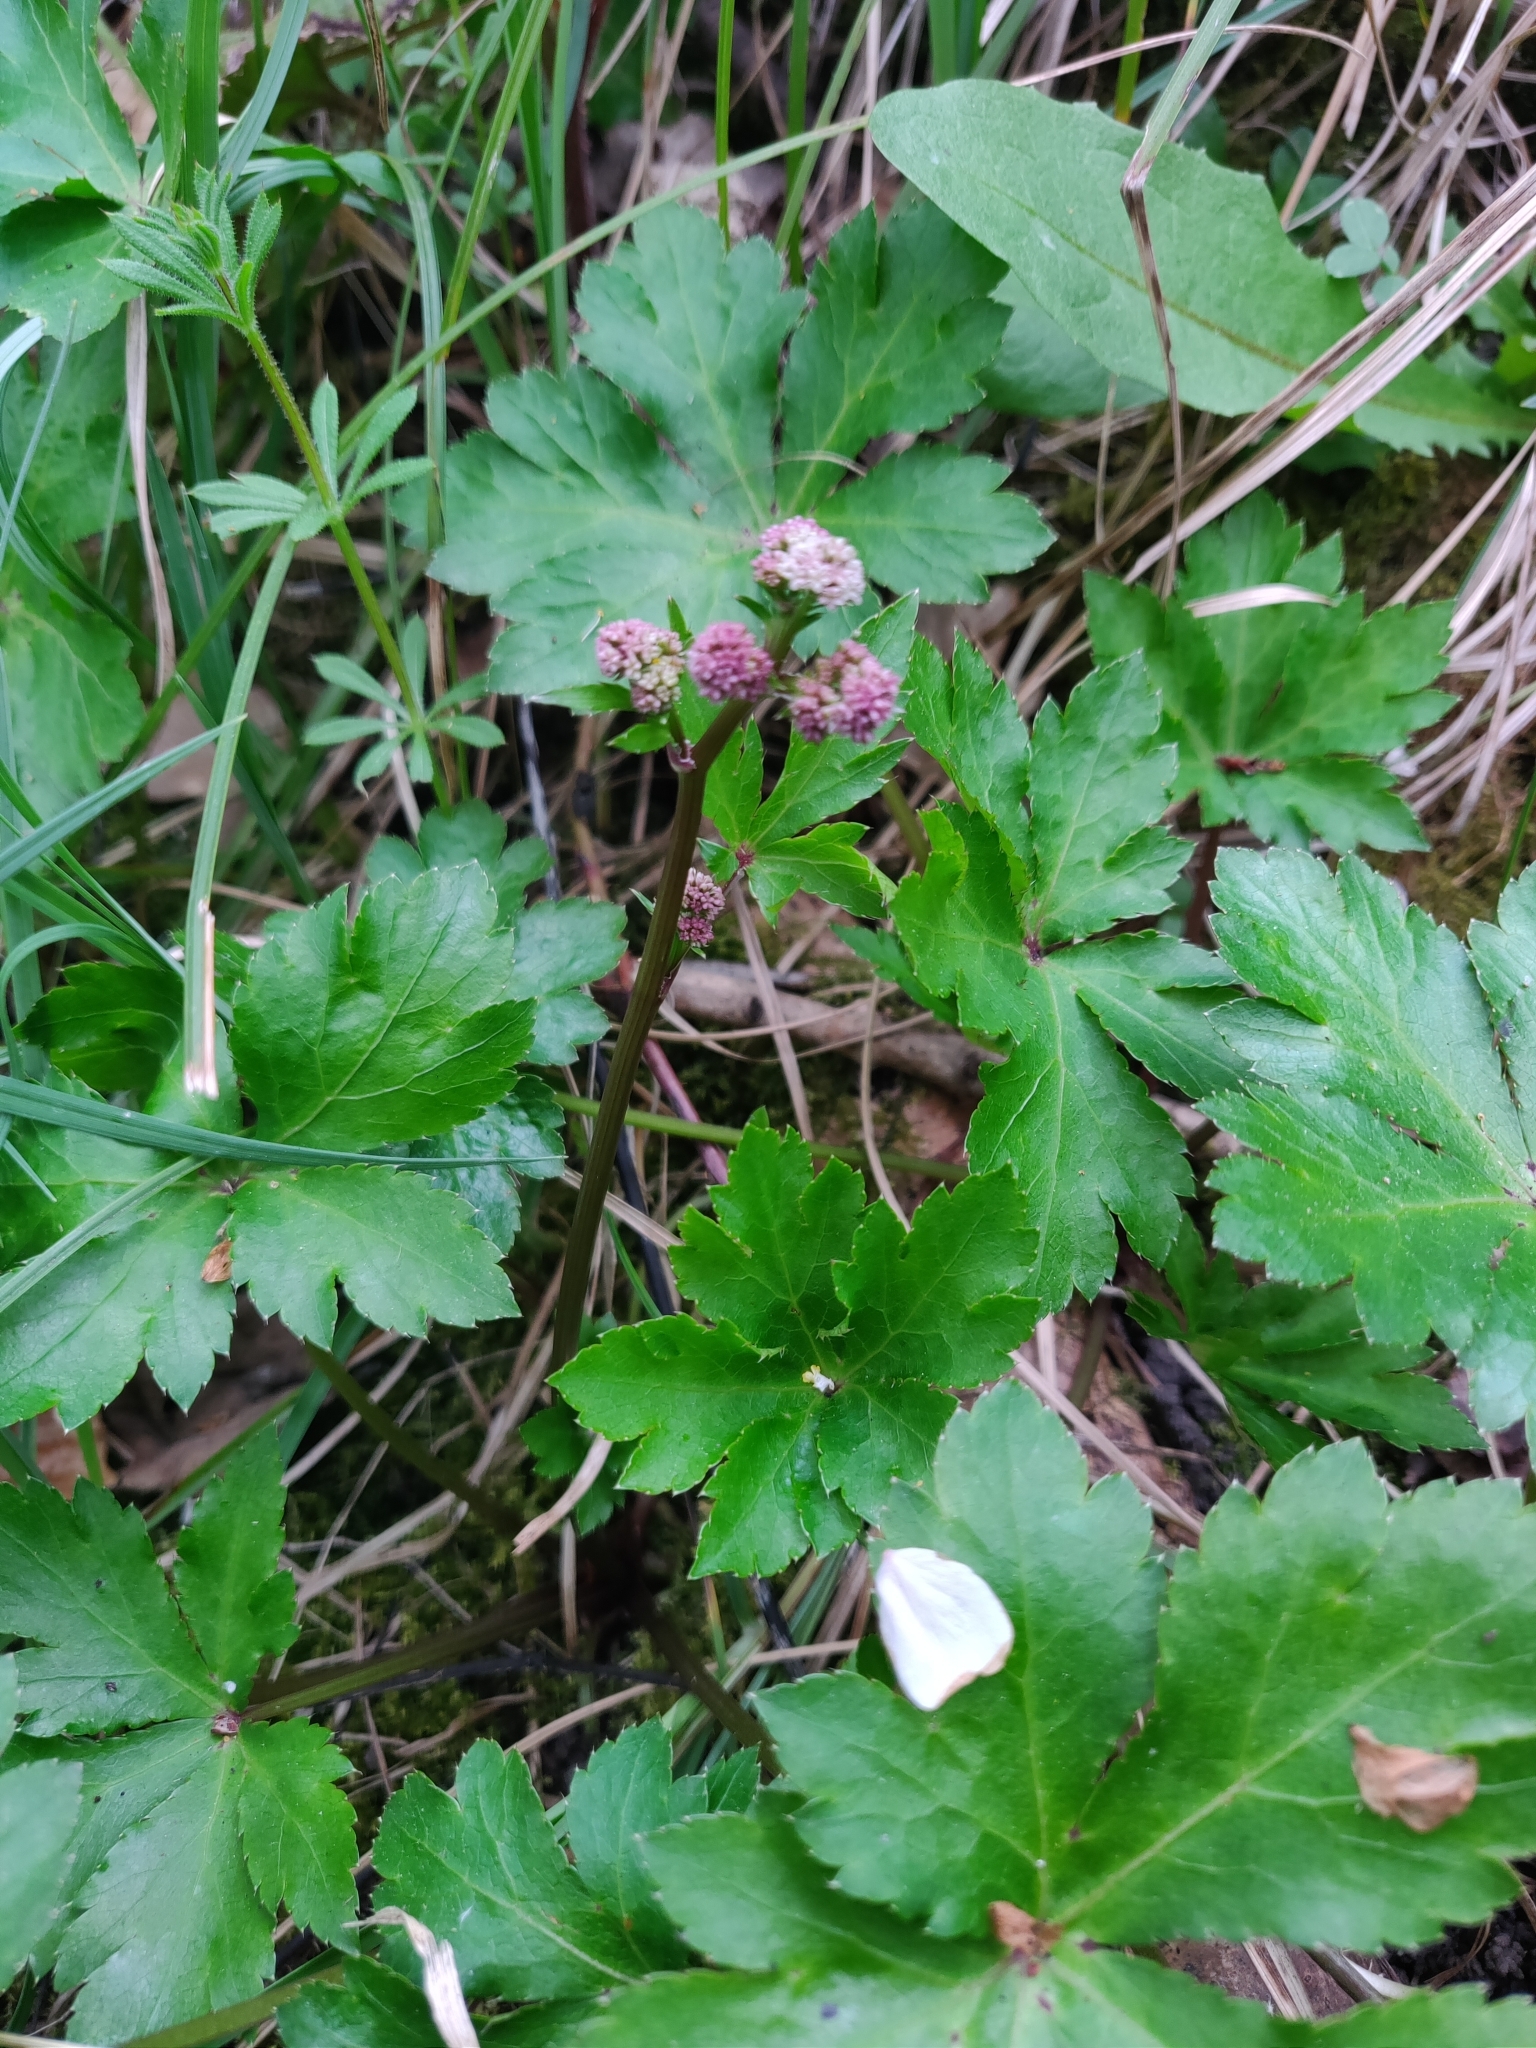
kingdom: Plantae
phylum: Tracheophyta
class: Magnoliopsida
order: Apiales
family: Apiaceae
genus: Sanicula
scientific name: Sanicula europaea
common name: Sanicle
